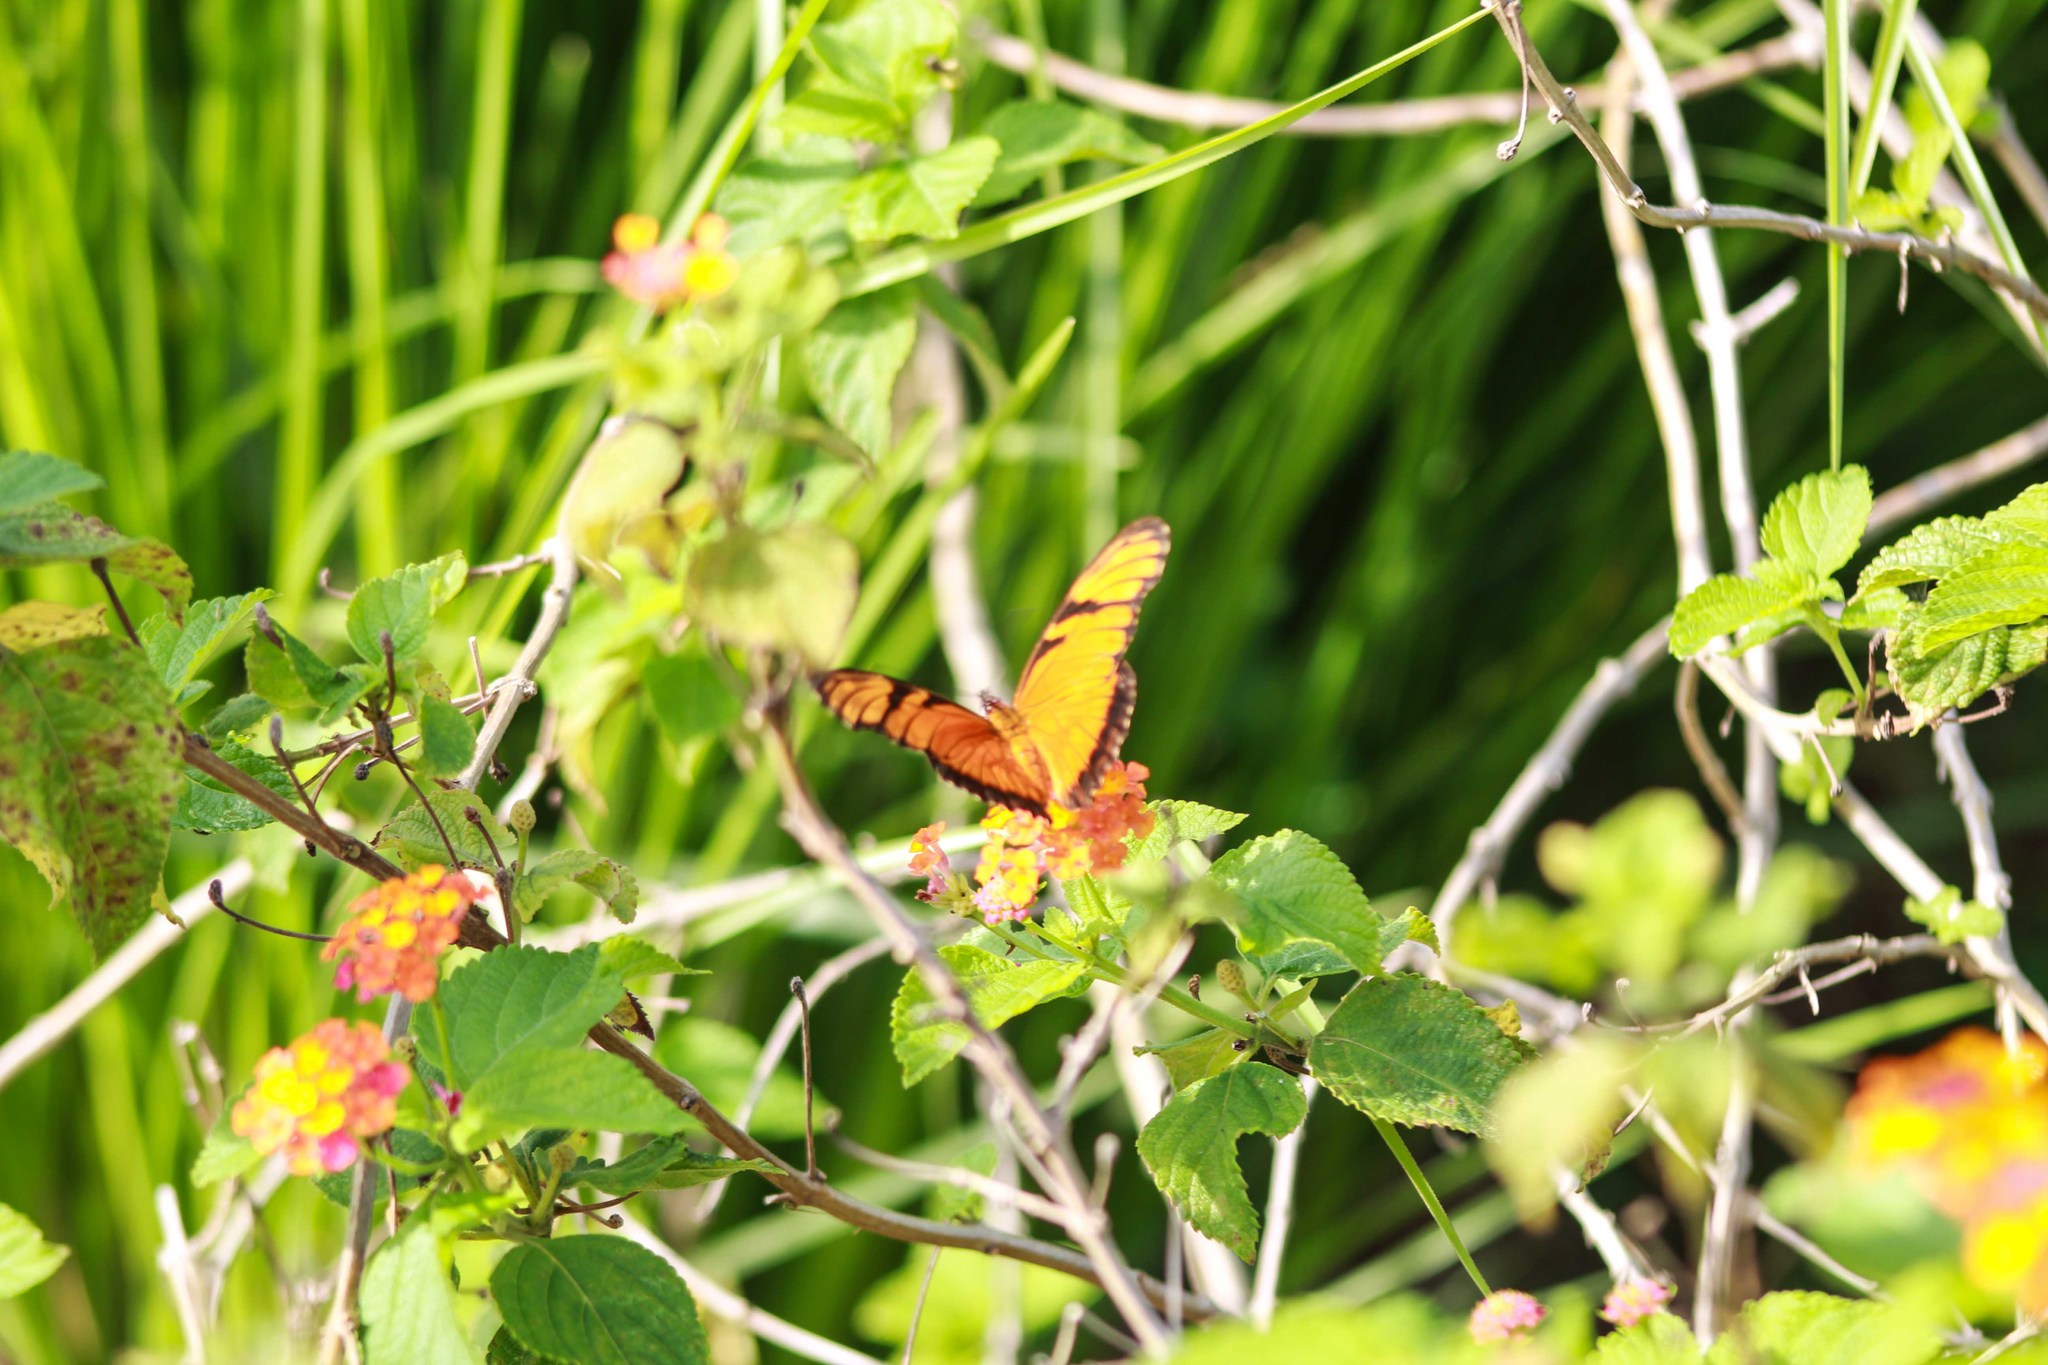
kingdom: Animalia
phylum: Arthropoda
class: Insecta
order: Lepidoptera
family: Nymphalidae
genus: Dione
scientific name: Dione juno
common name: Juno silverspot
